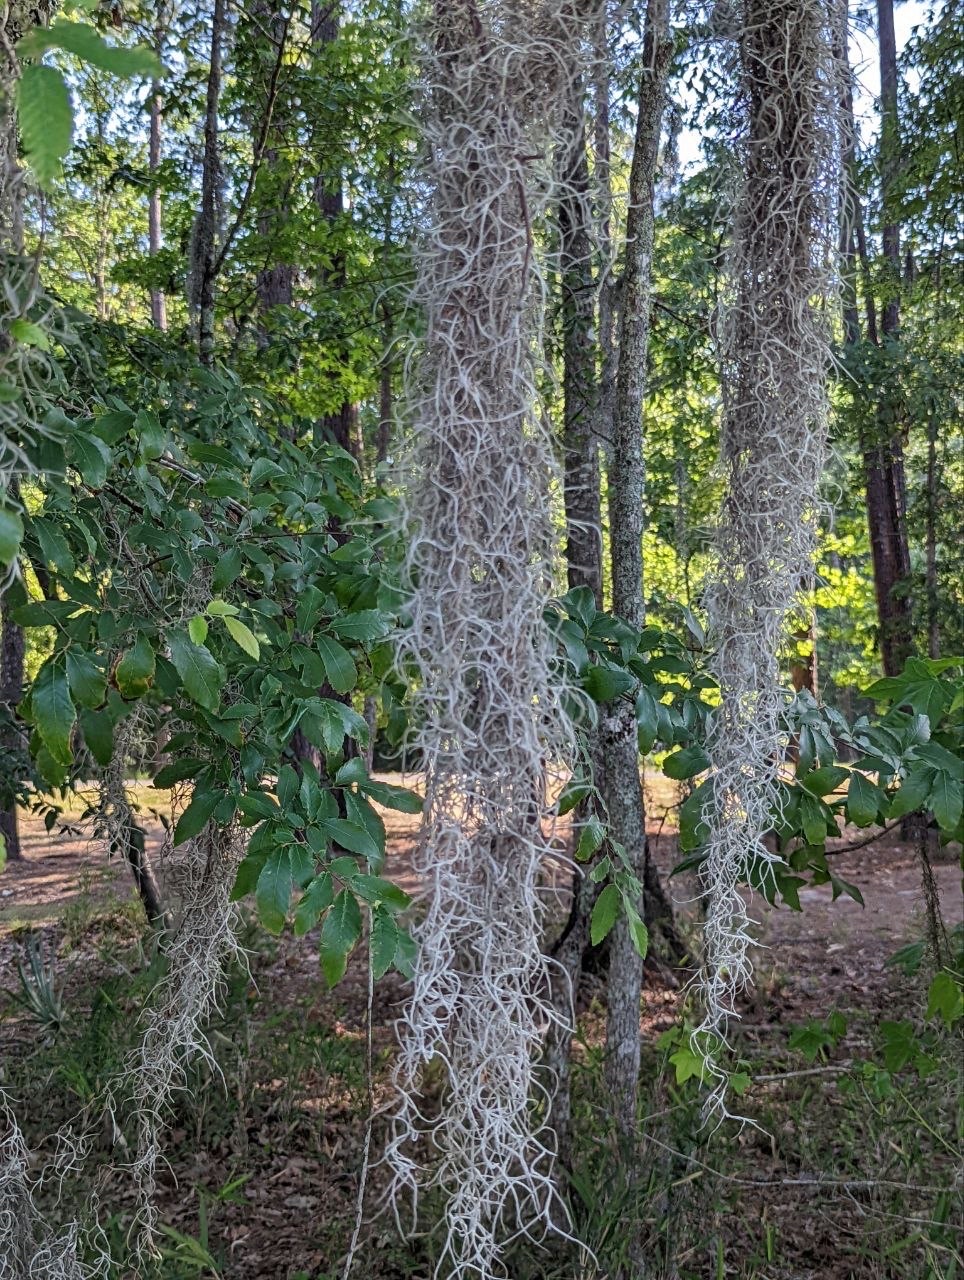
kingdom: Plantae
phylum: Tracheophyta
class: Liliopsida
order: Poales
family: Bromeliaceae
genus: Tillandsia
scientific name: Tillandsia usneoides
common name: Spanish moss
